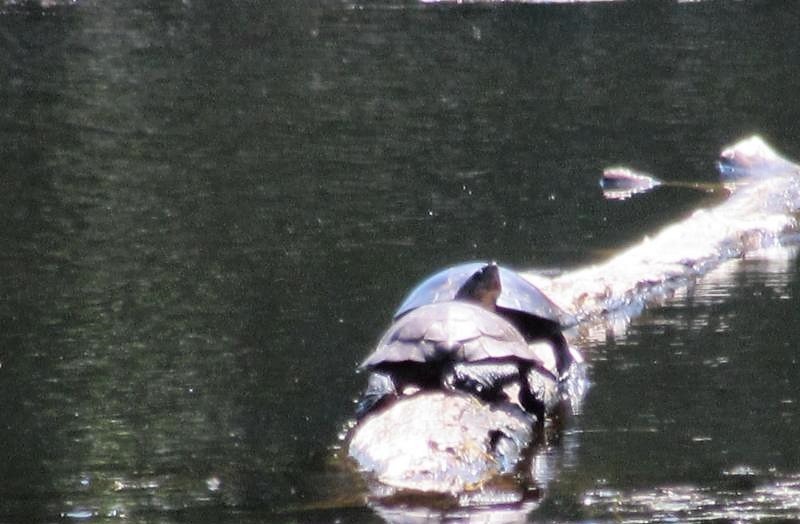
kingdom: Animalia
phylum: Chordata
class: Testudines
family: Emydidae
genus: Actinemys
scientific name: Actinemys marmorata
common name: Western pond turtle
